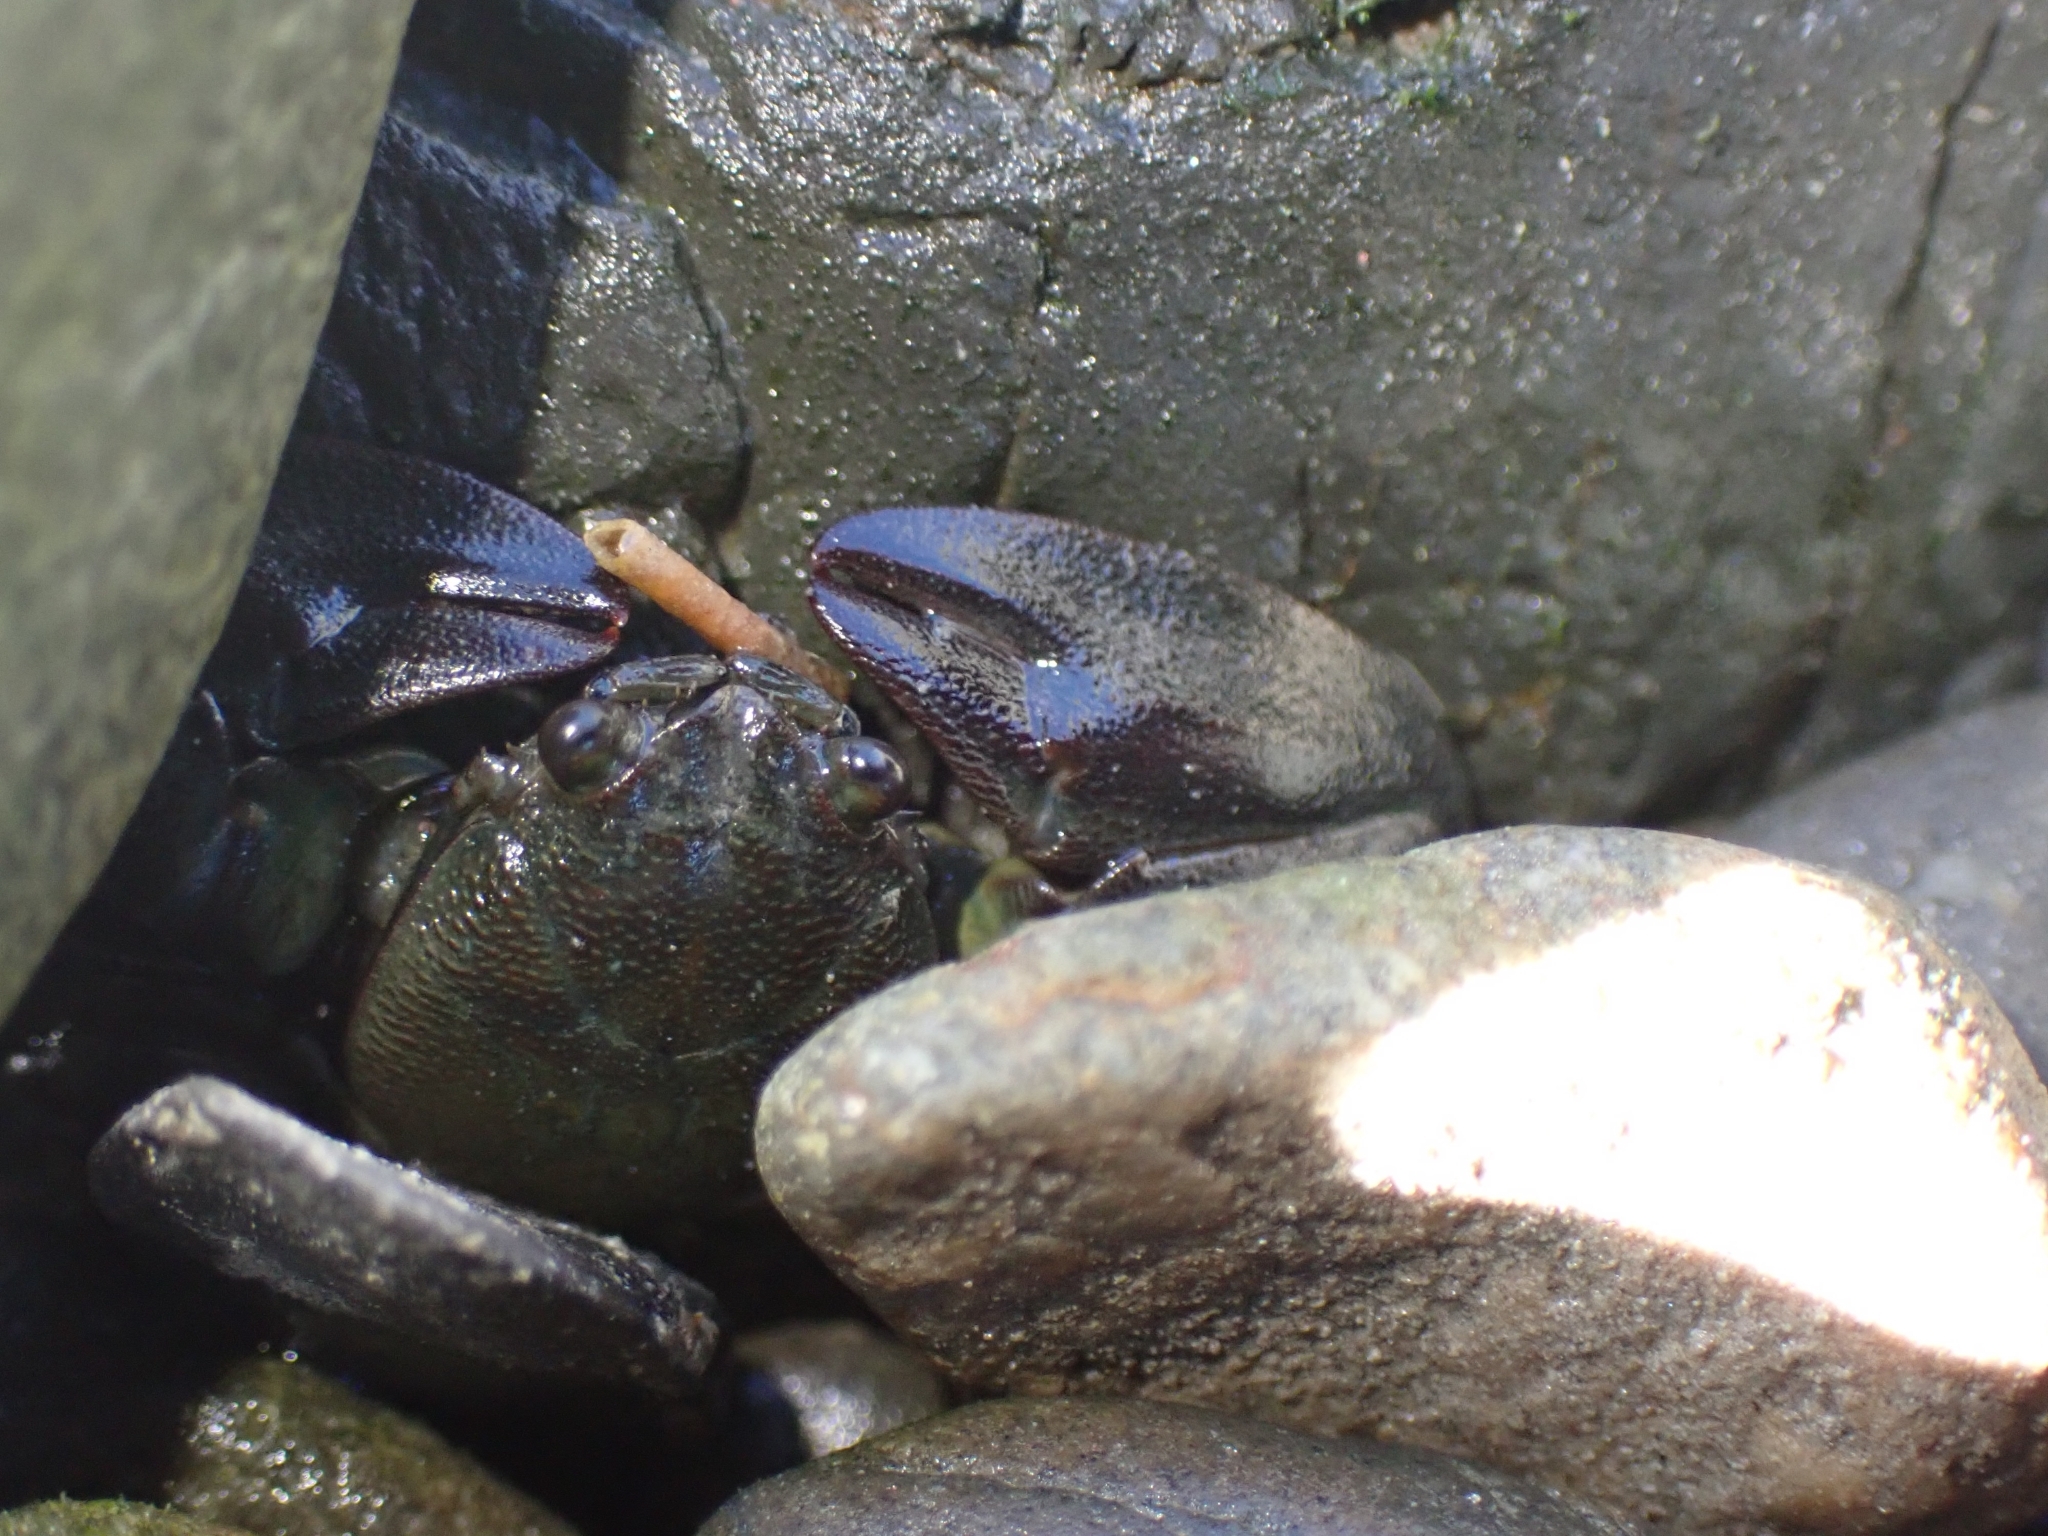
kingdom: Animalia
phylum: Arthropoda
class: Malacostraca
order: Decapoda
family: Porcellanidae
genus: Petrolisthes
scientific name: Petrolisthes elongatus
